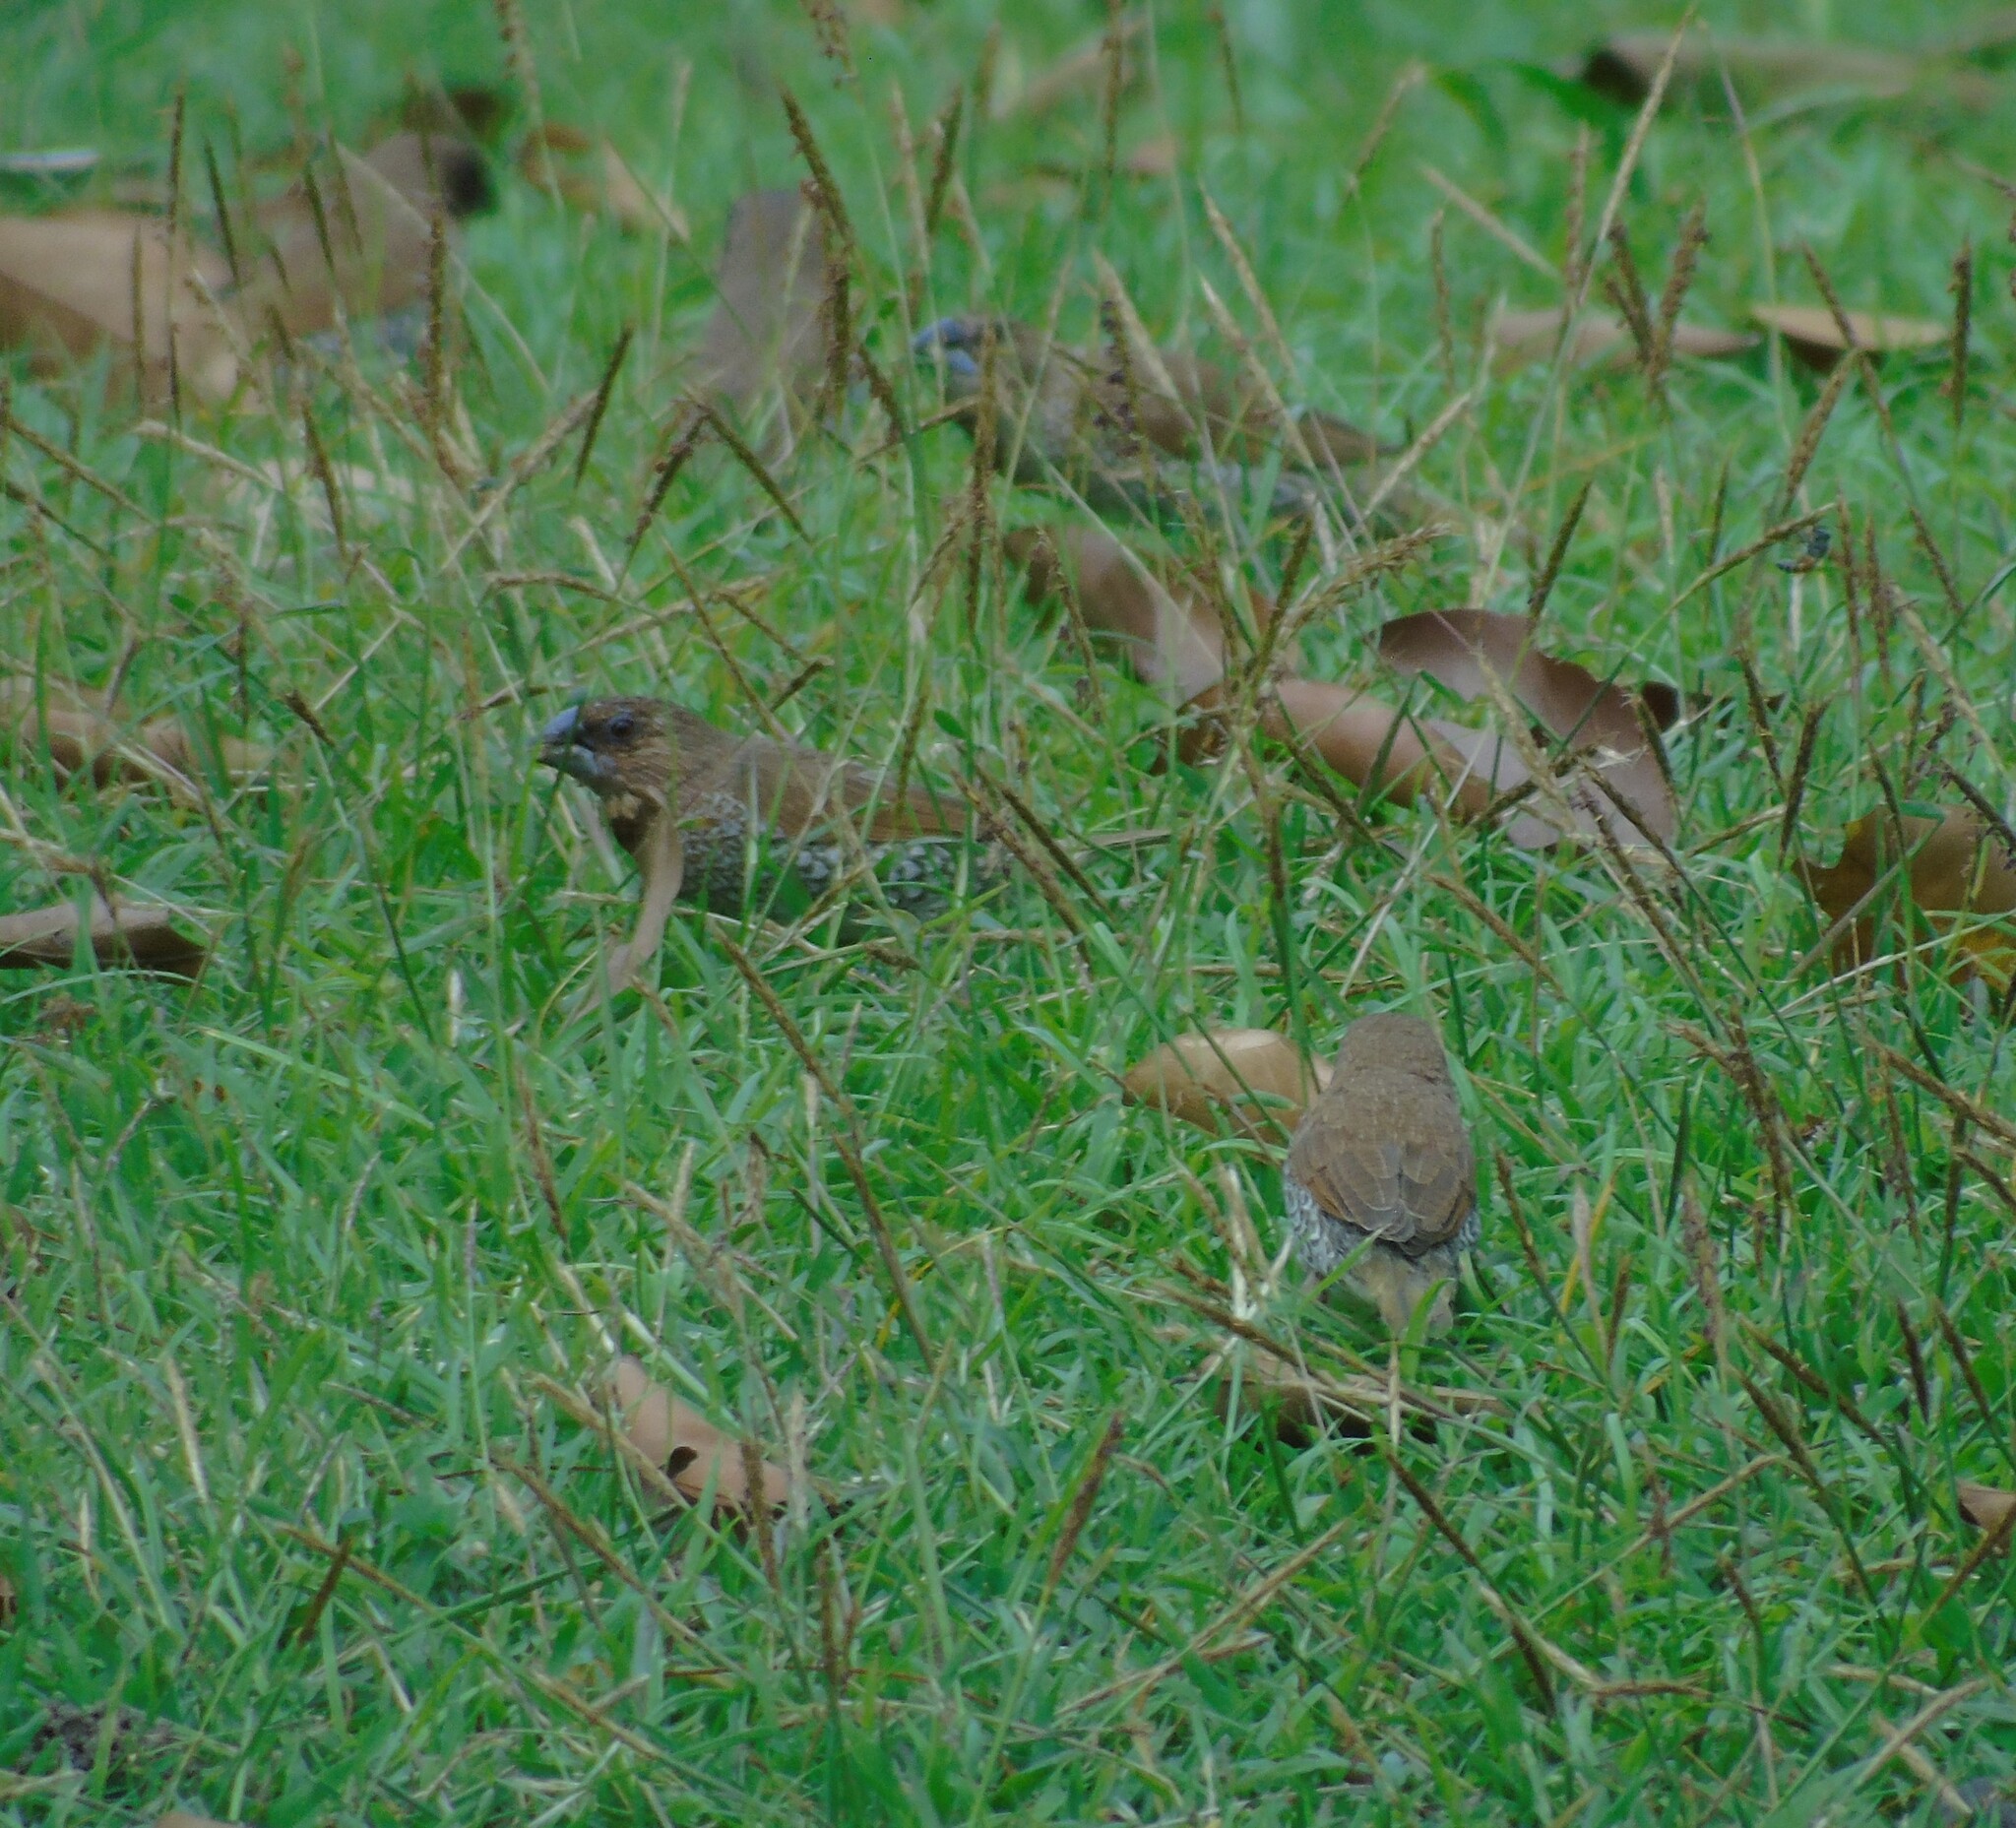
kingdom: Animalia
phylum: Chordata
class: Aves
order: Passeriformes
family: Estrildidae
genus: Lonchura
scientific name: Lonchura punctulata
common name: Scaly-breasted munia
